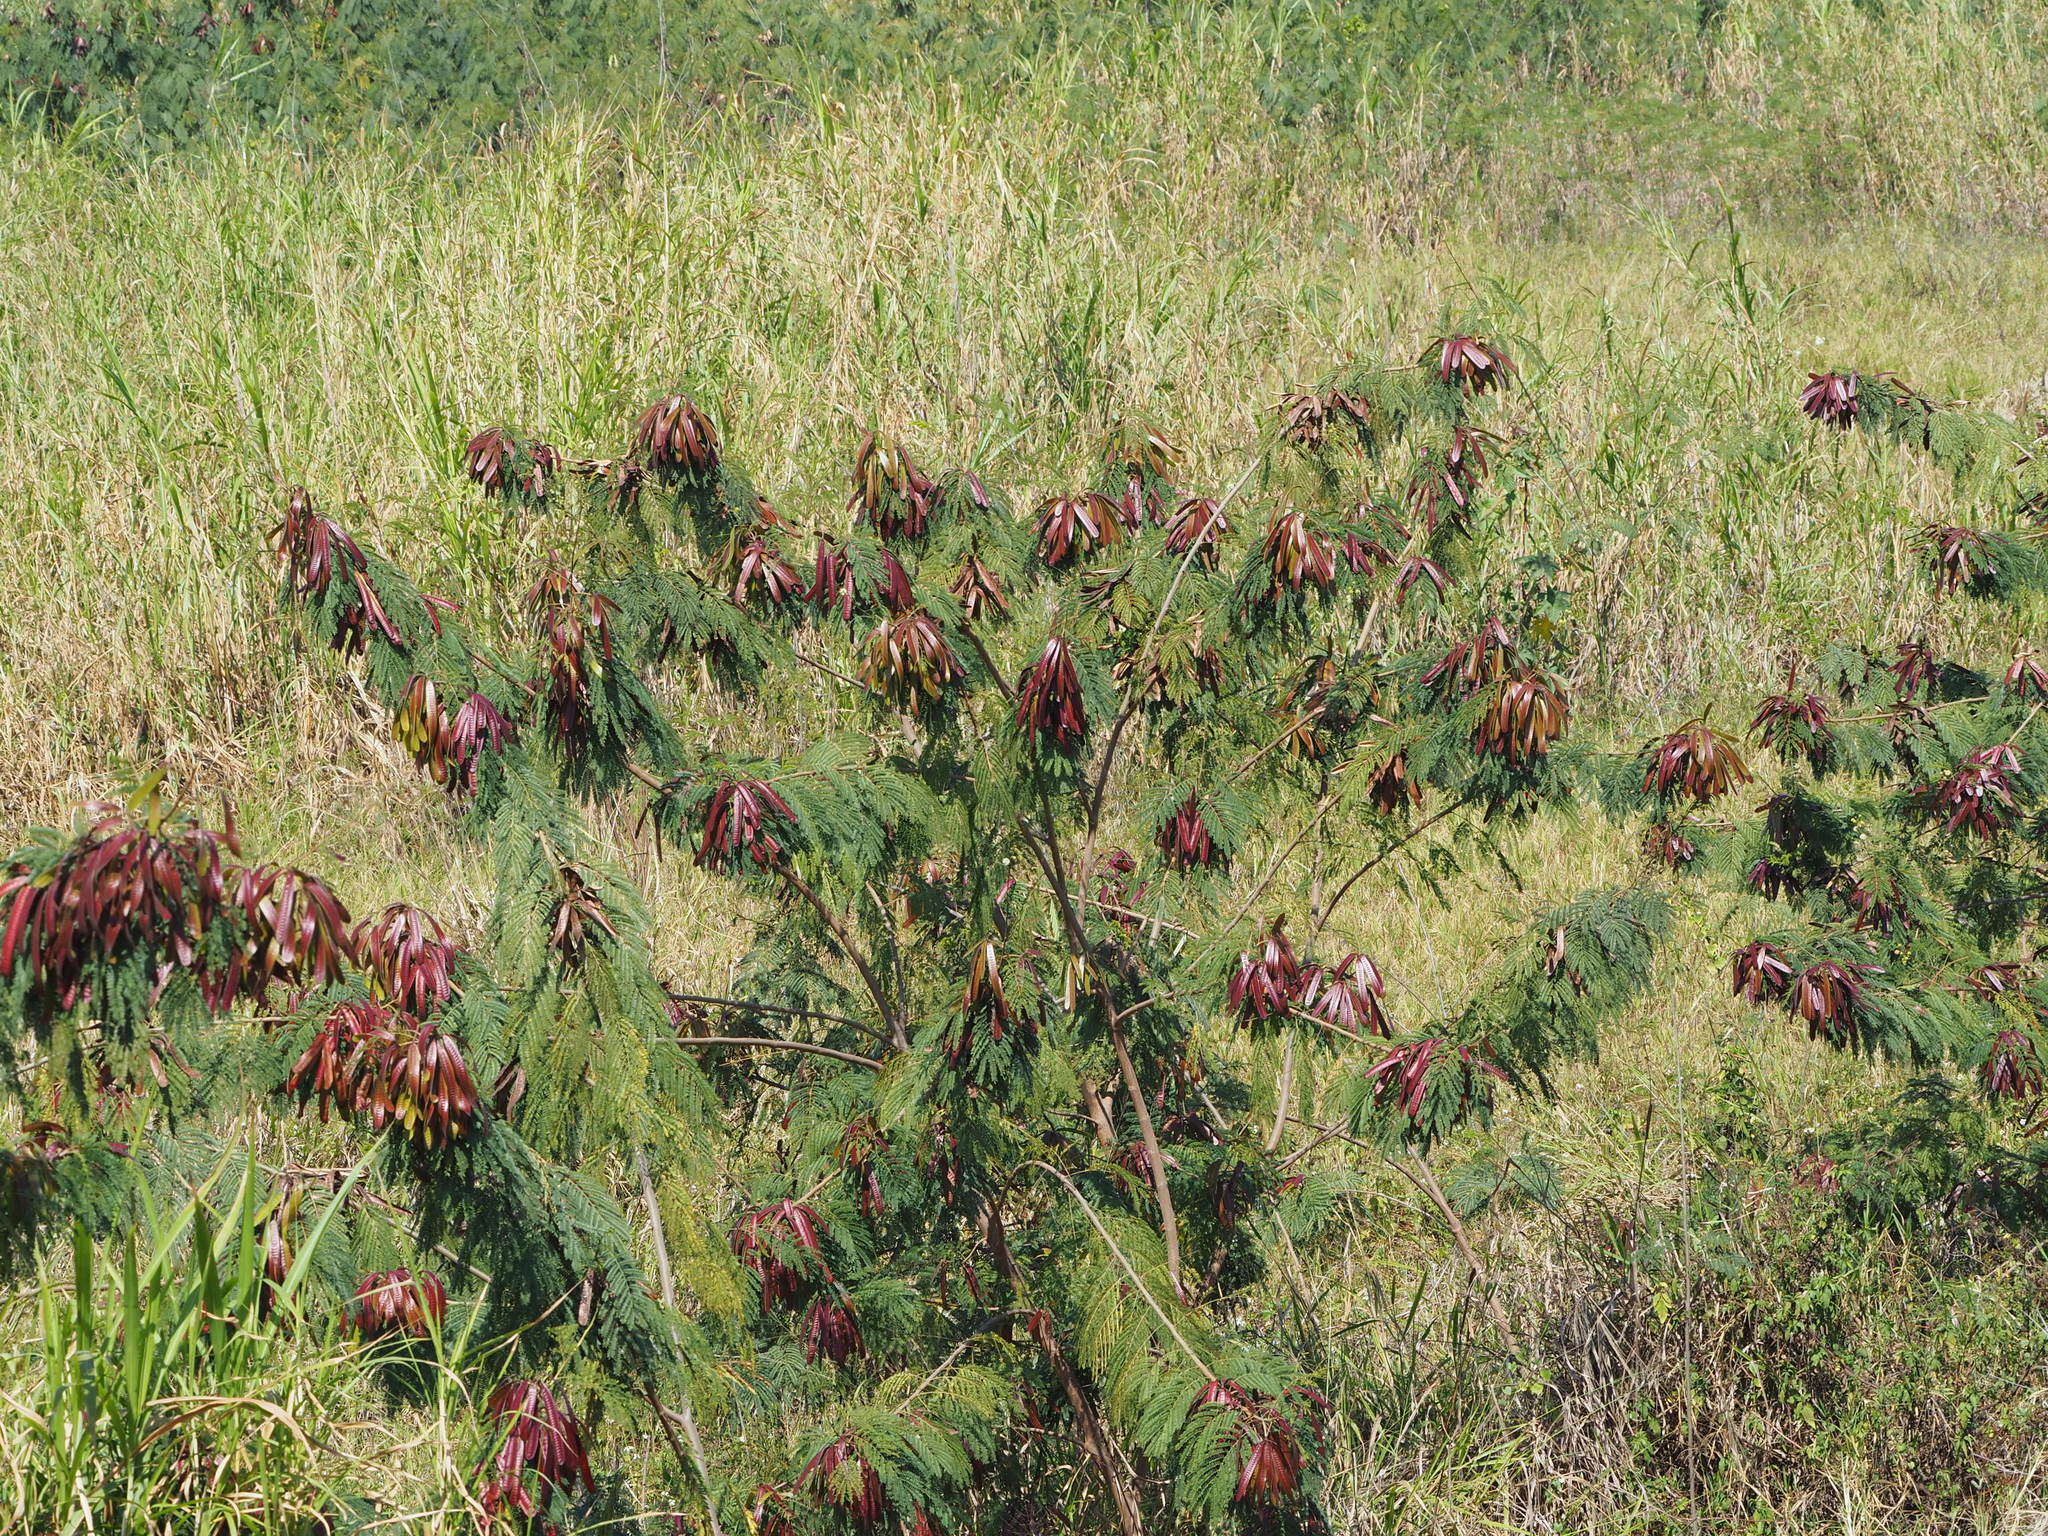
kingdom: Plantae
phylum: Tracheophyta
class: Magnoliopsida
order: Fabales
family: Fabaceae
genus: Leucaena
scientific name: Leucaena leucocephala
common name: White leadtree
